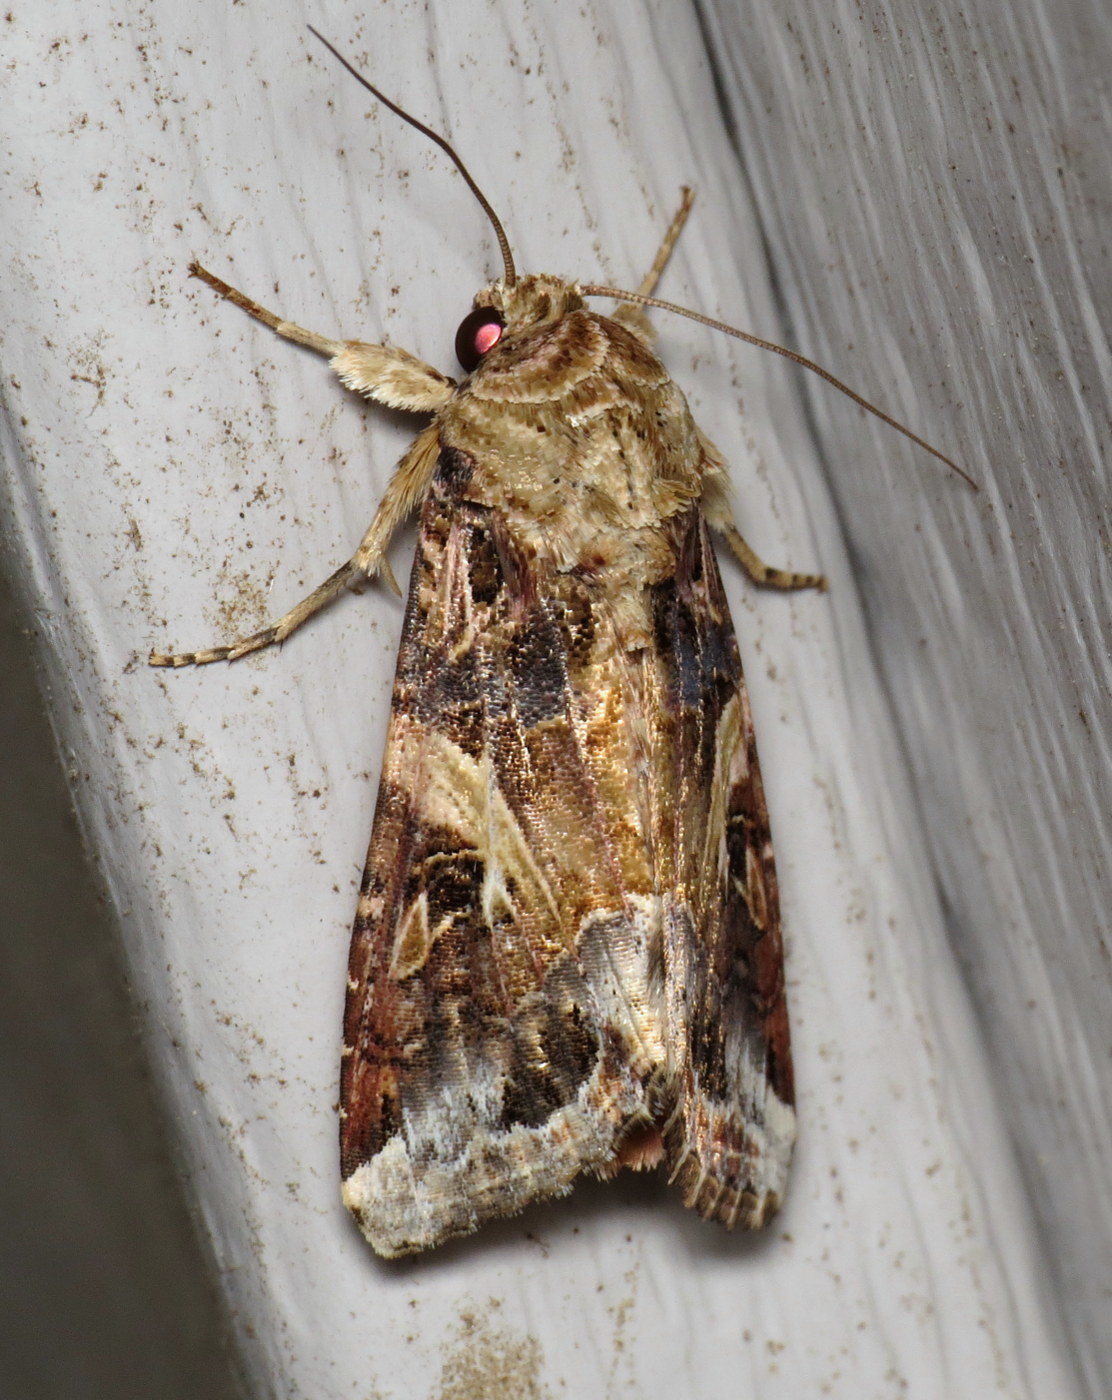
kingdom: Animalia
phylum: Arthropoda
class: Insecta
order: Lepidoptera
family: Noctuidae
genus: Spodoptera
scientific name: Spodoptera ornithogalli
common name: Yellow-striped armyworm
